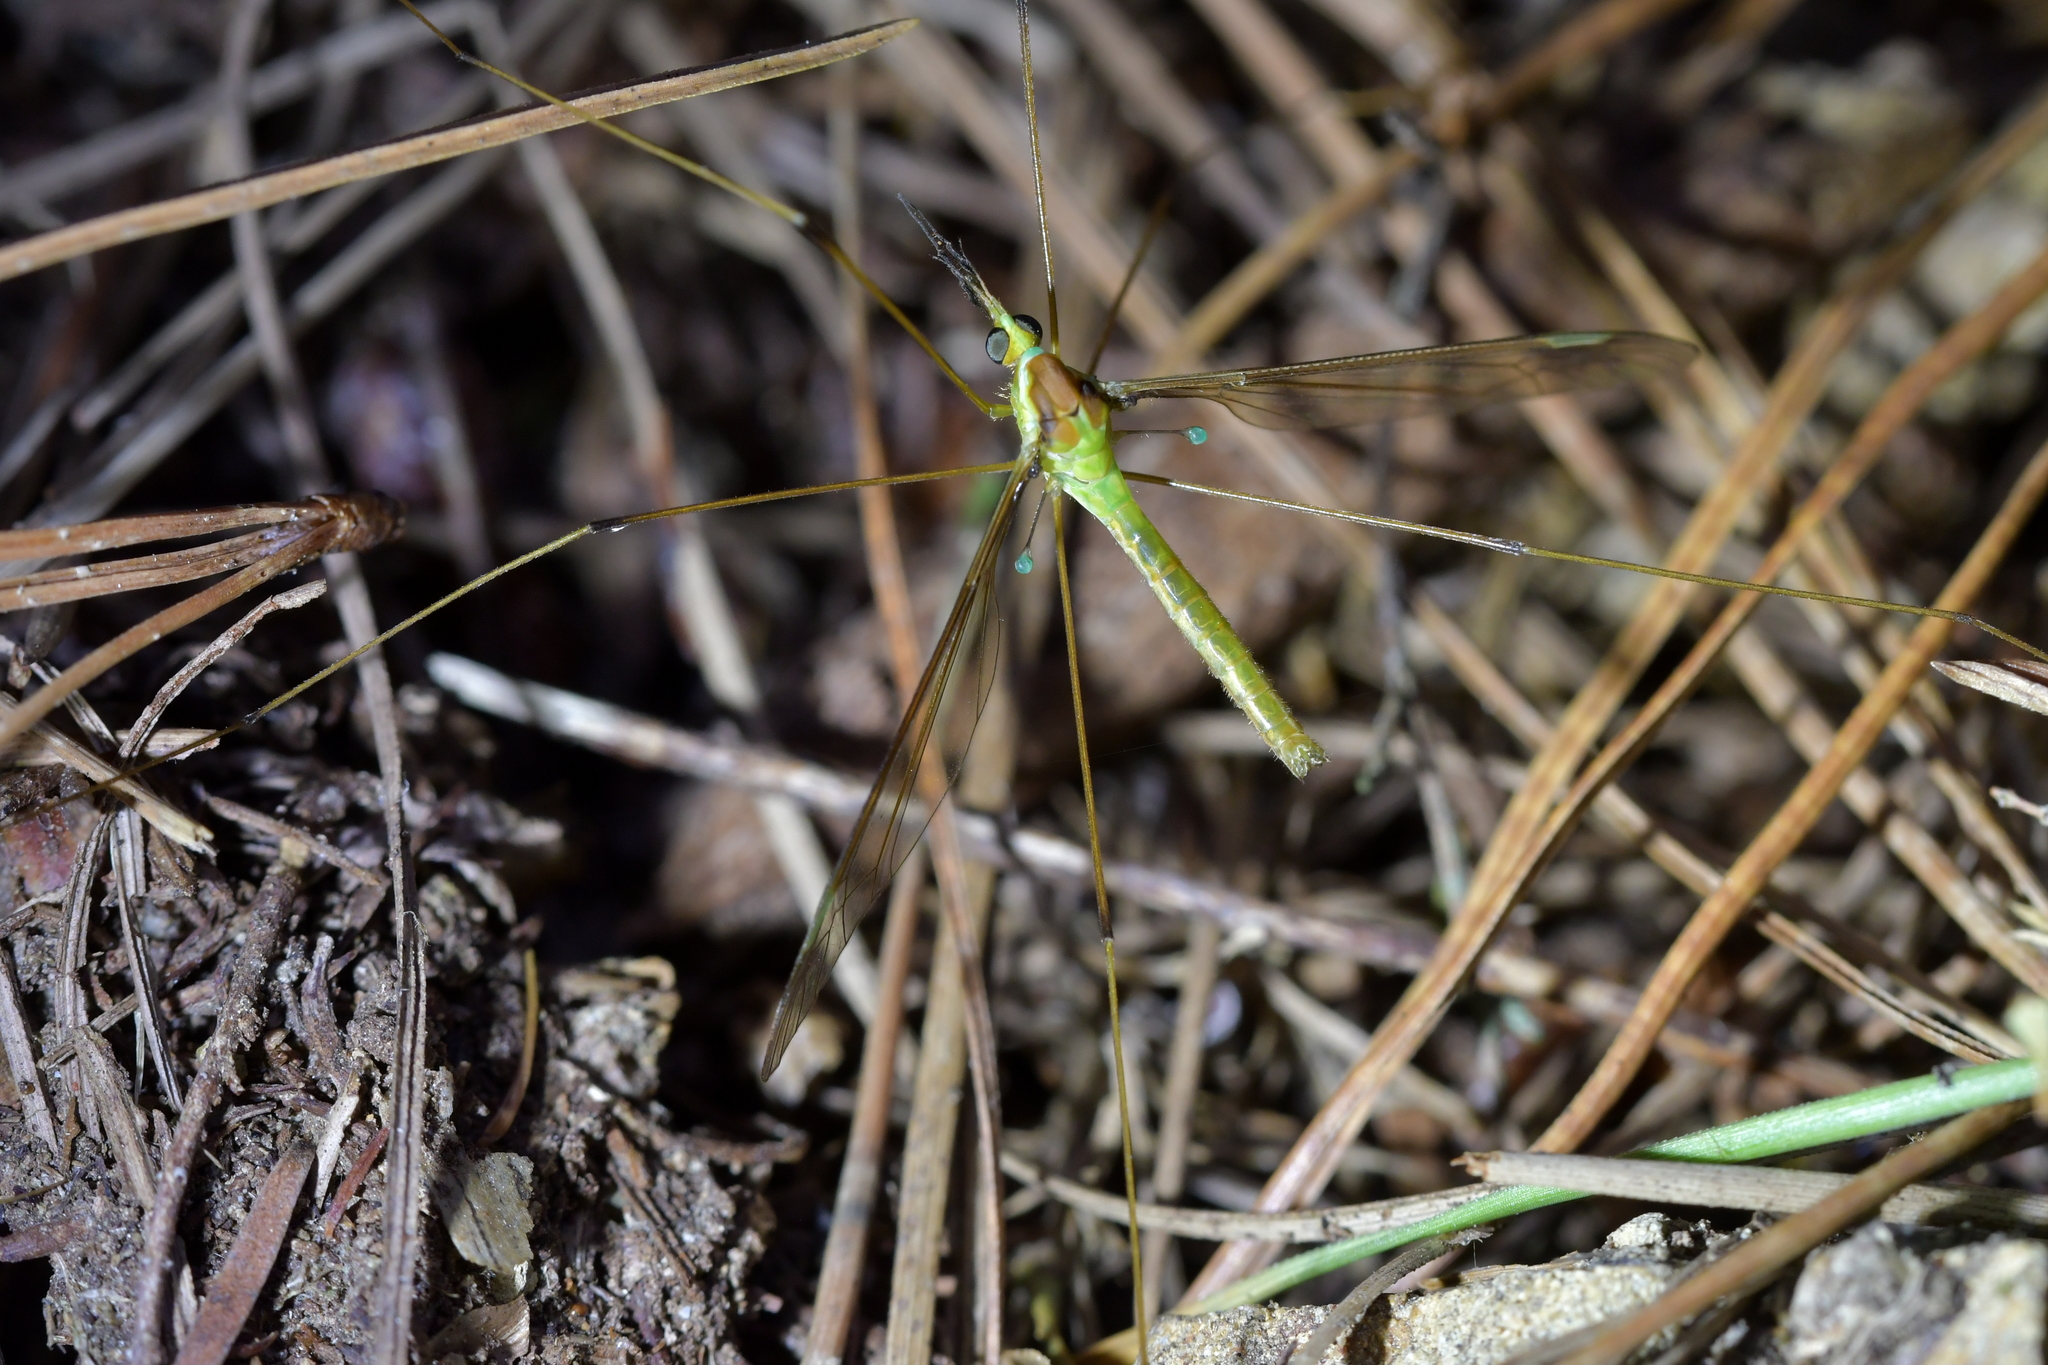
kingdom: Animalia
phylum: Arthropoda
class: Insecta
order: Diptera
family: Tipulidae
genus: Leptotarsus
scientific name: Leptotarsus albistigma
